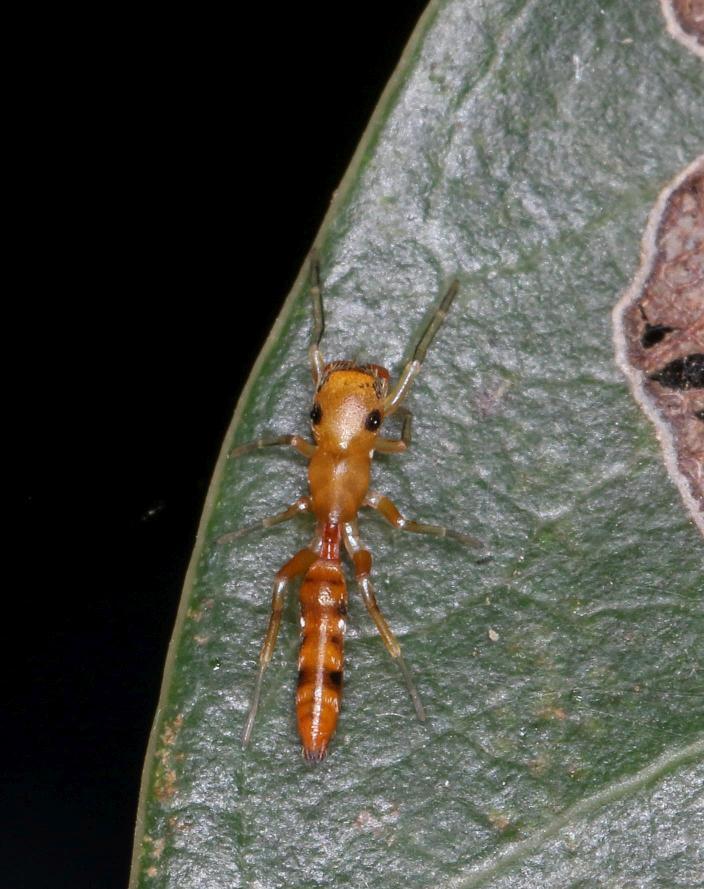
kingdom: Animalia
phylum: Arthropoda
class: Arachnida
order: Araneae
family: Salticidae
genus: Myrmarachne
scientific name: Myrmarachne ichneumon
